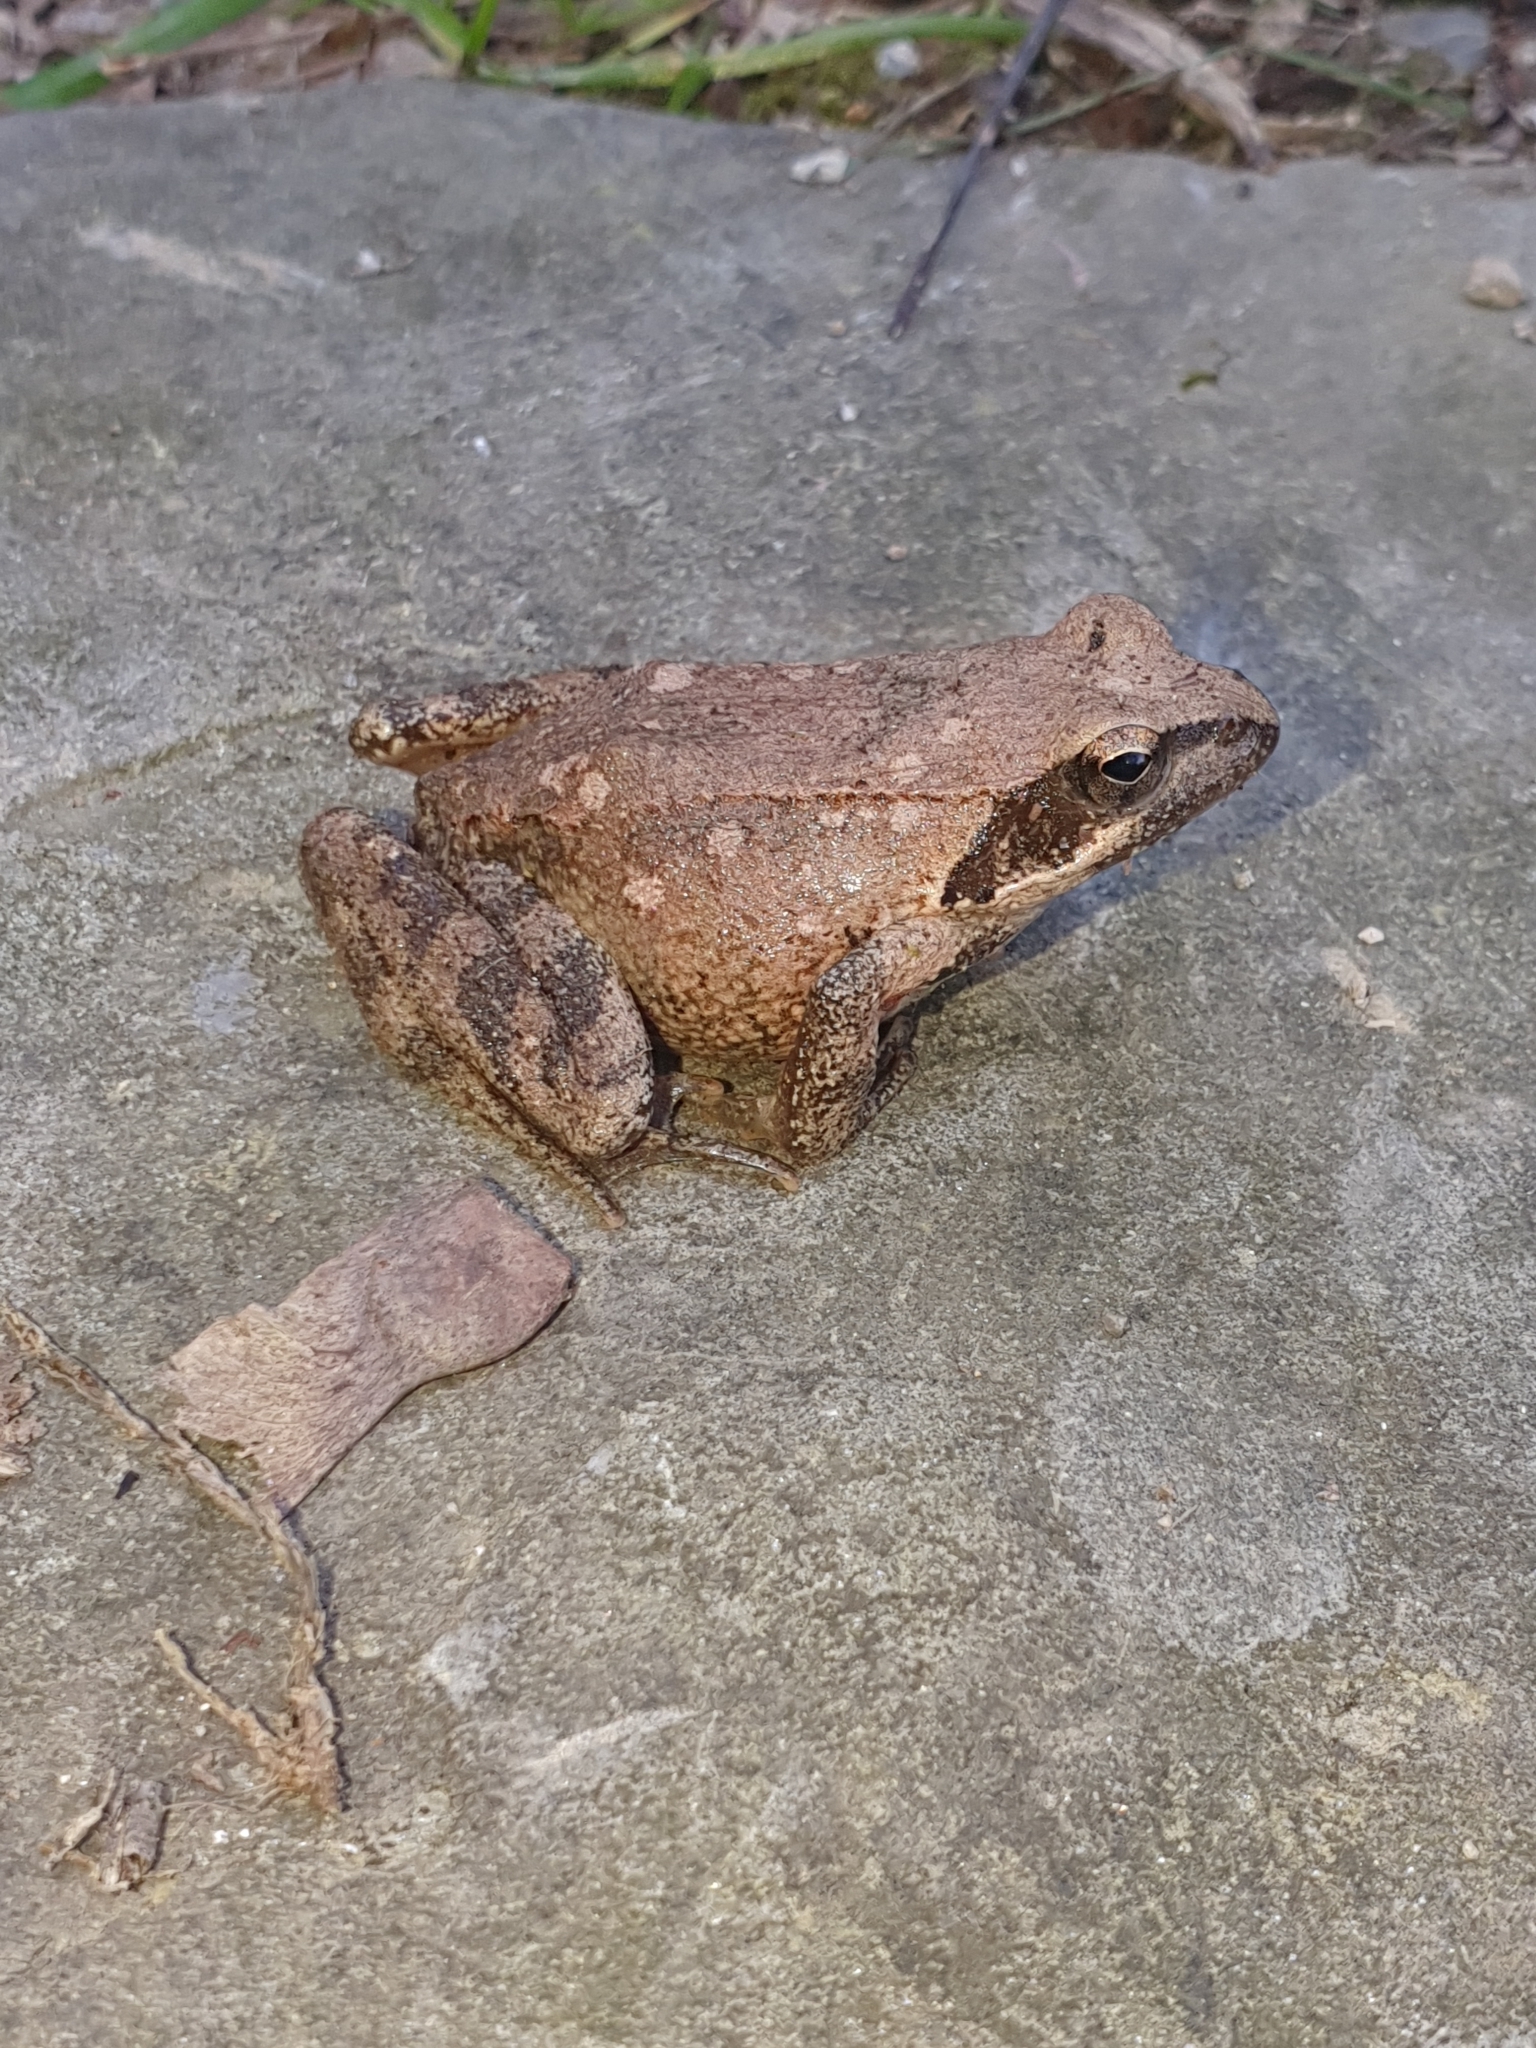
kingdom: Animalia
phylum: Chordata
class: Amphibia
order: Anura
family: Ranidae
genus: Rana
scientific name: Rana italica
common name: Italian stream frog
